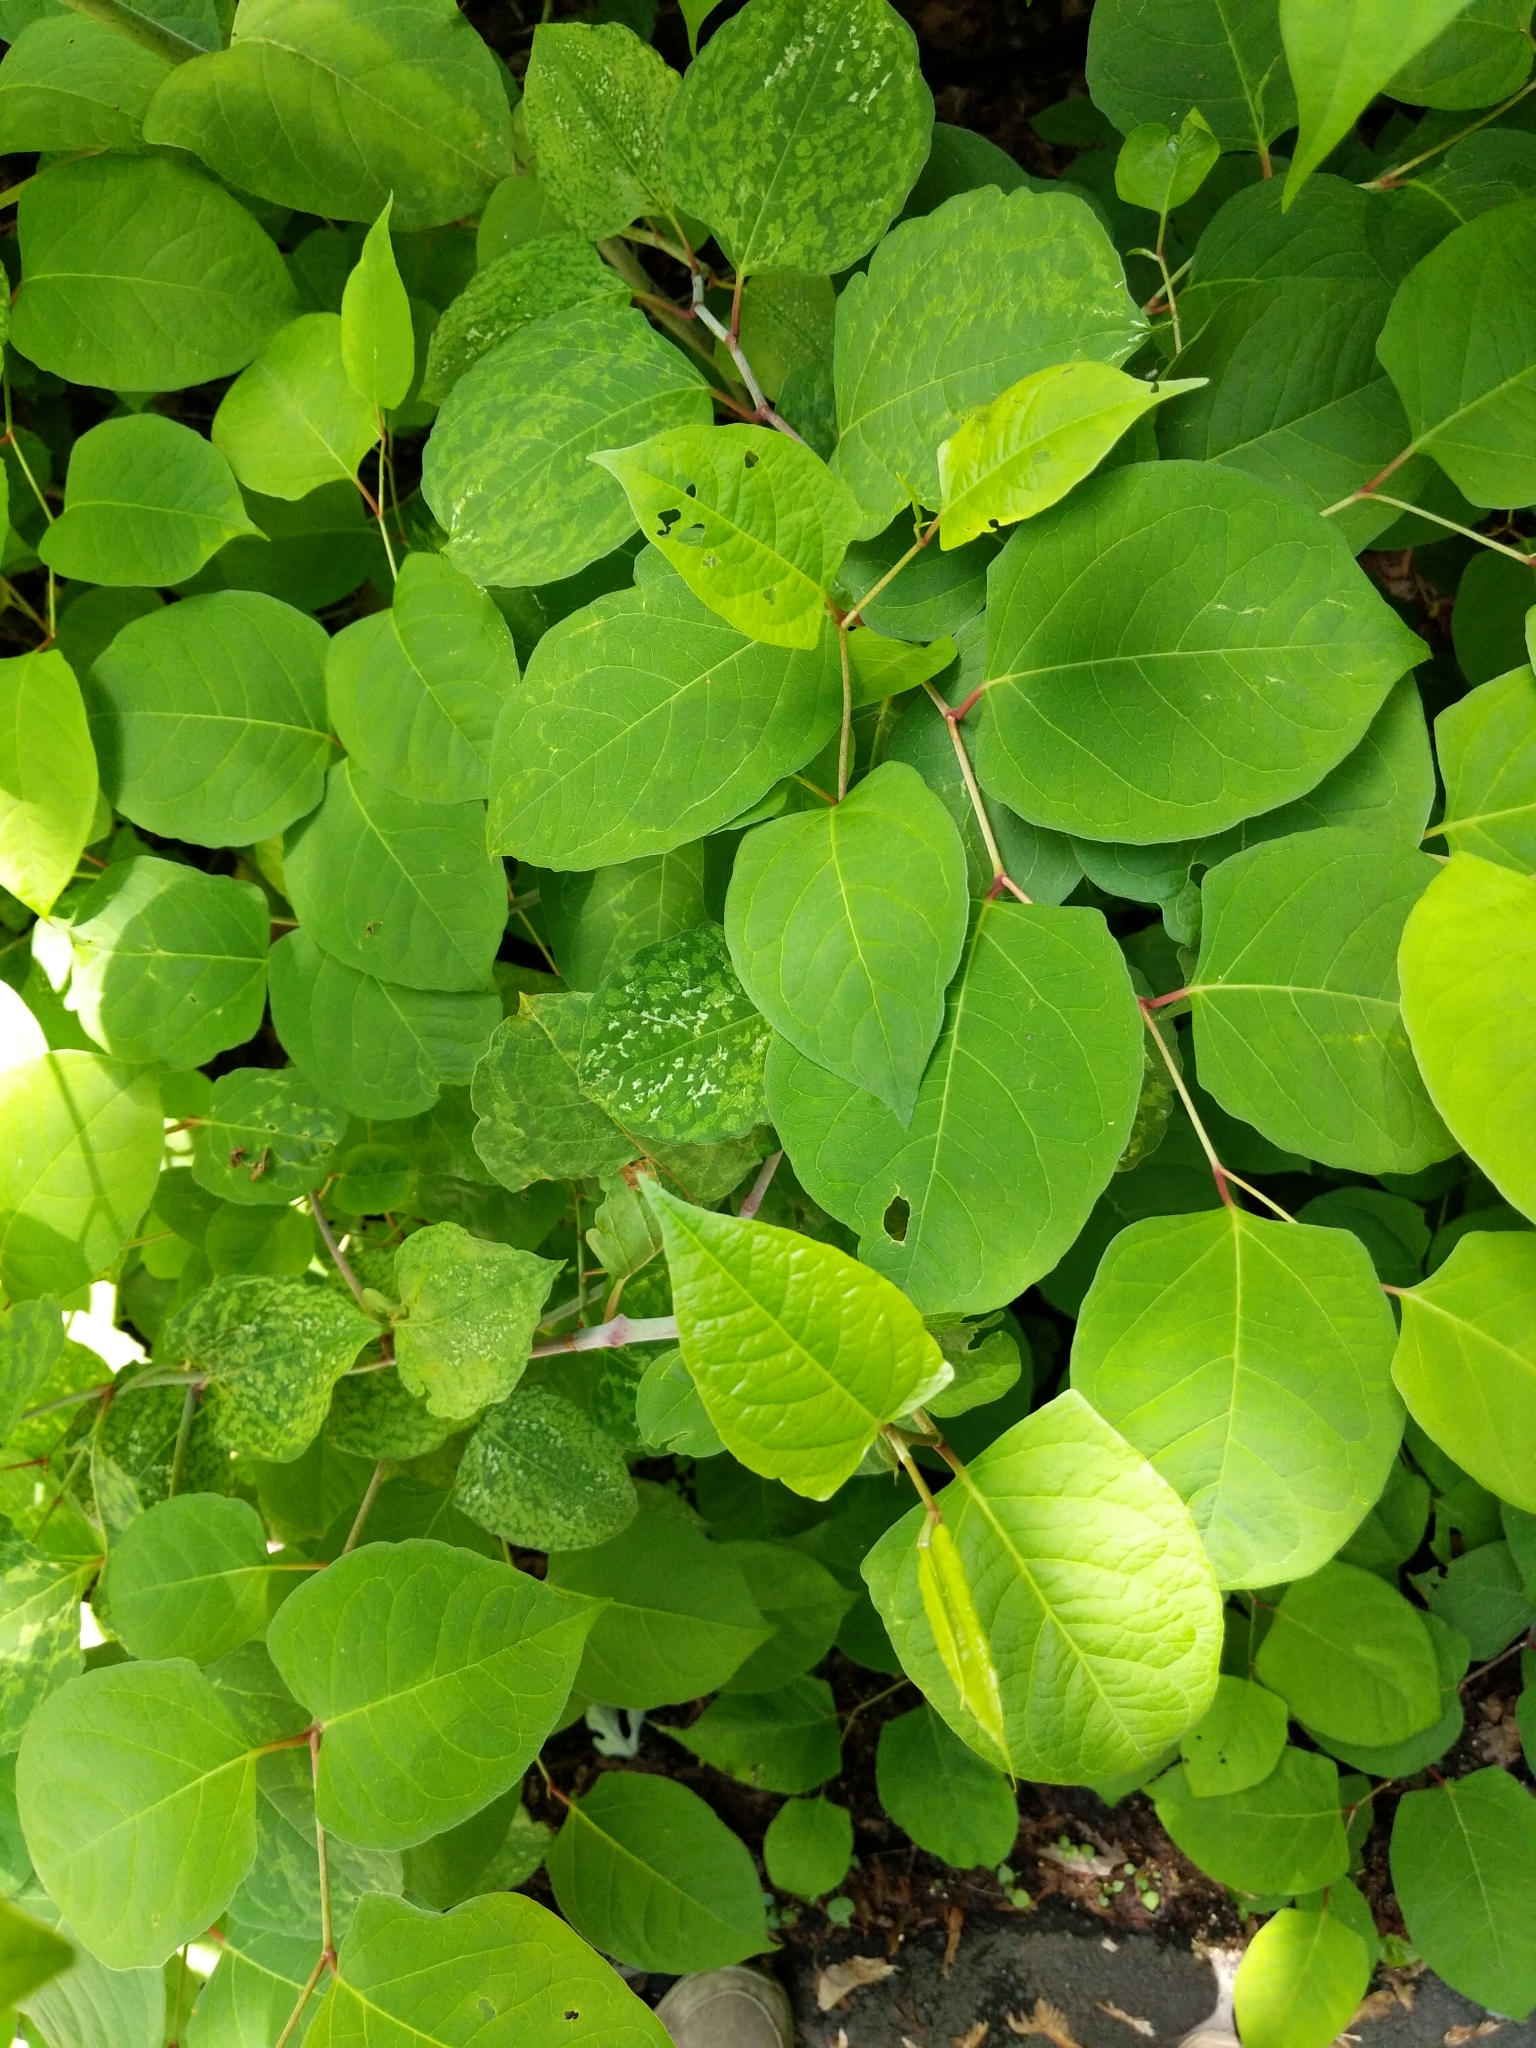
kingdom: Plantae
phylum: Tracheophyta
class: Magnoliopsida
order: Caryophyllales
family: Polygonaceae
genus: Reynoutria
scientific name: Reynoutria japonica
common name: Japanese knotweed
